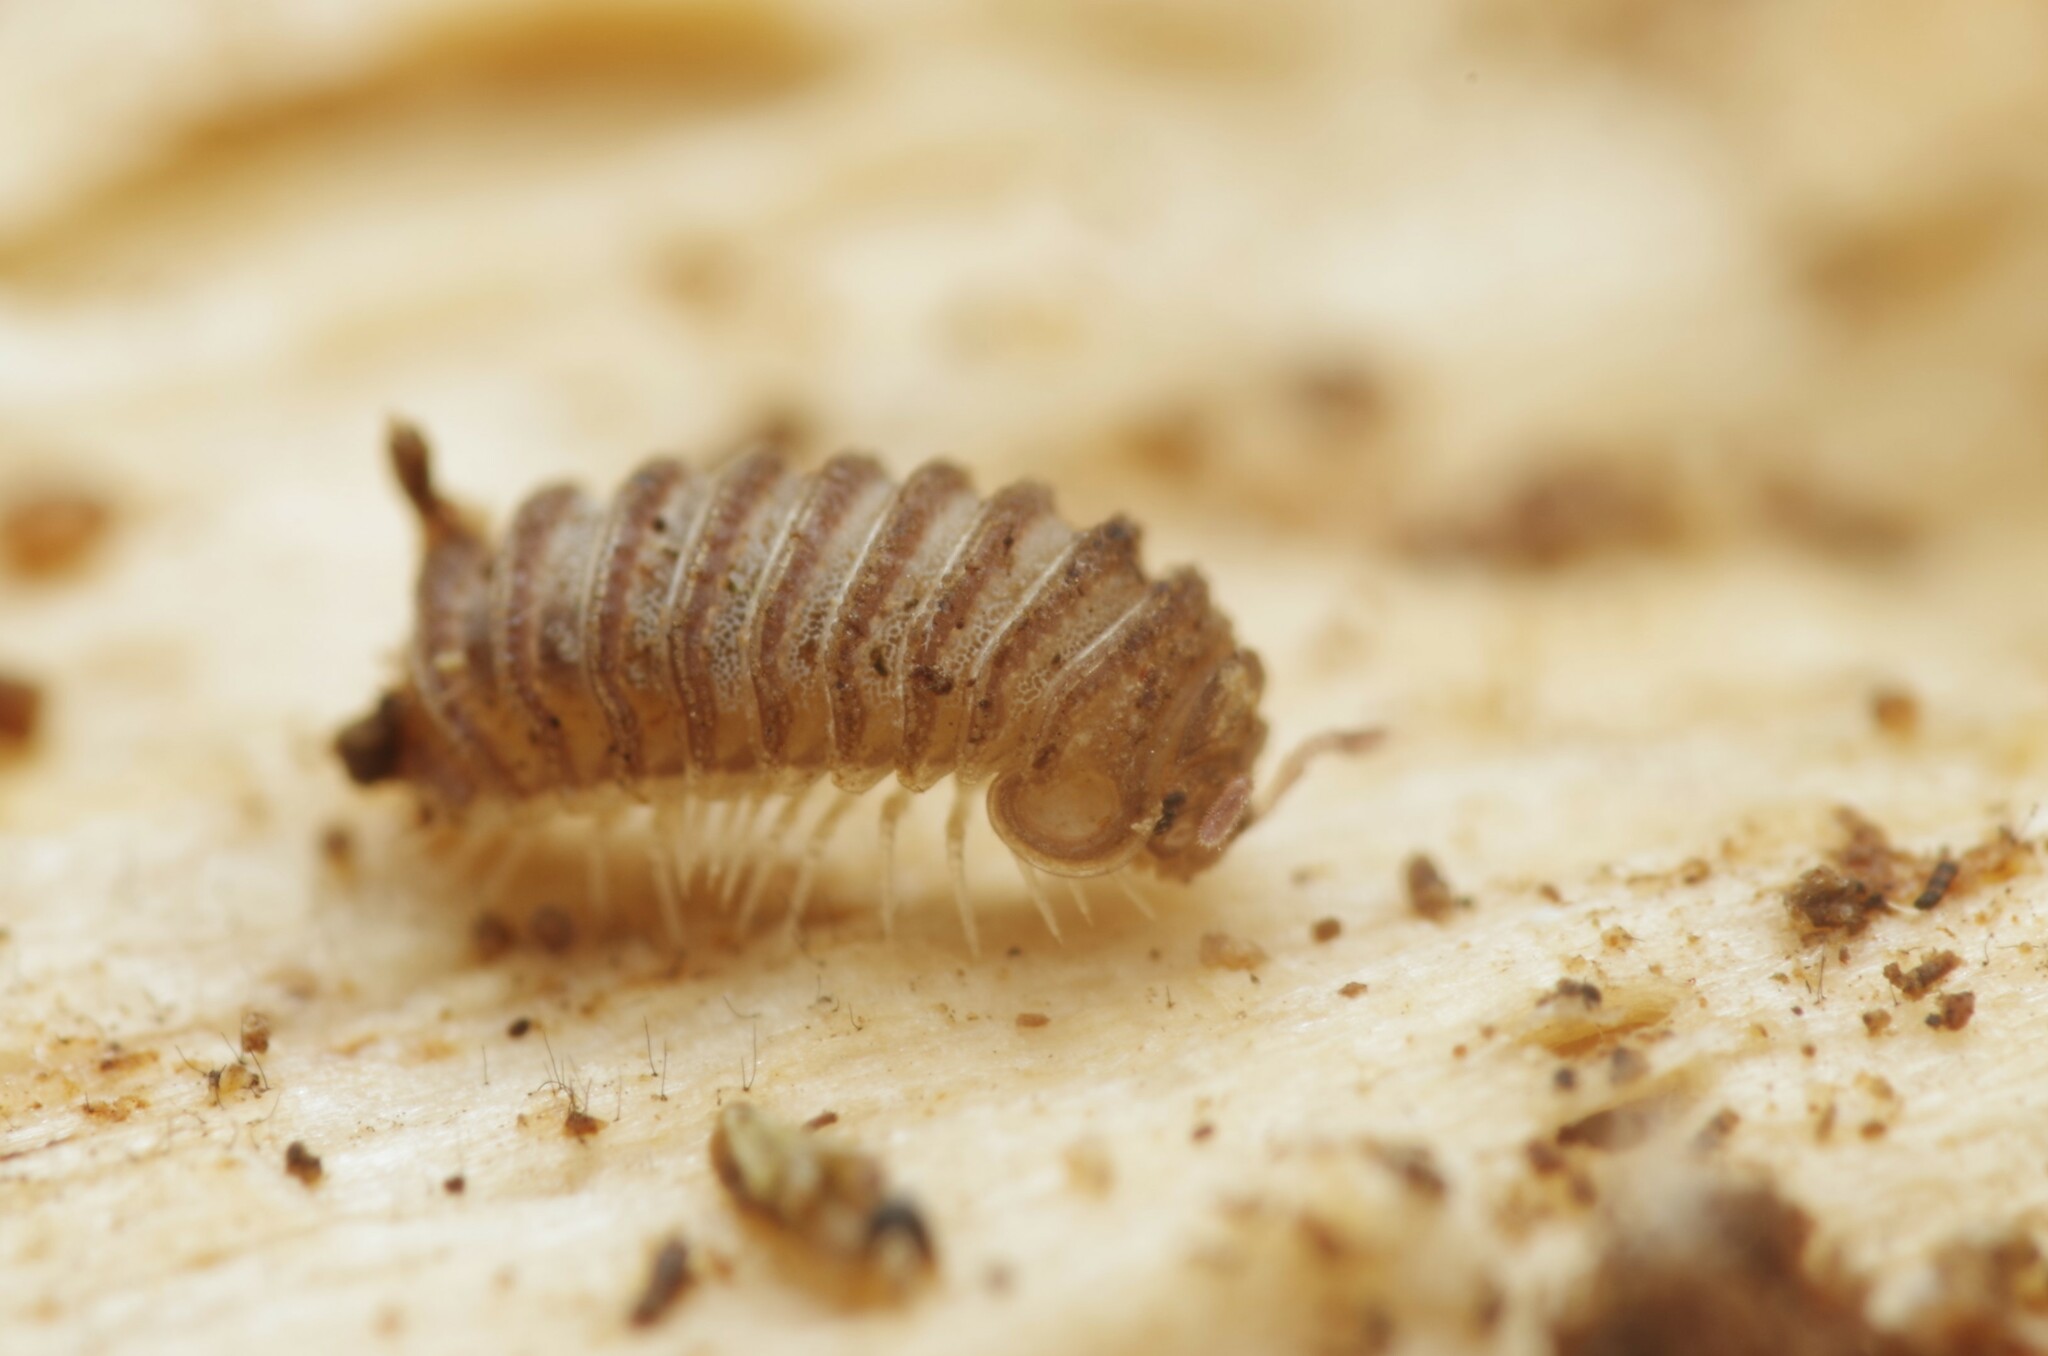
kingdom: Animalia
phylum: Arthropoda
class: Diplopoda
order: Glomerida
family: Glomeridae
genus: Trachysphaera
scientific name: Trachysphaera lobata
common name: Sand pill-millipede
